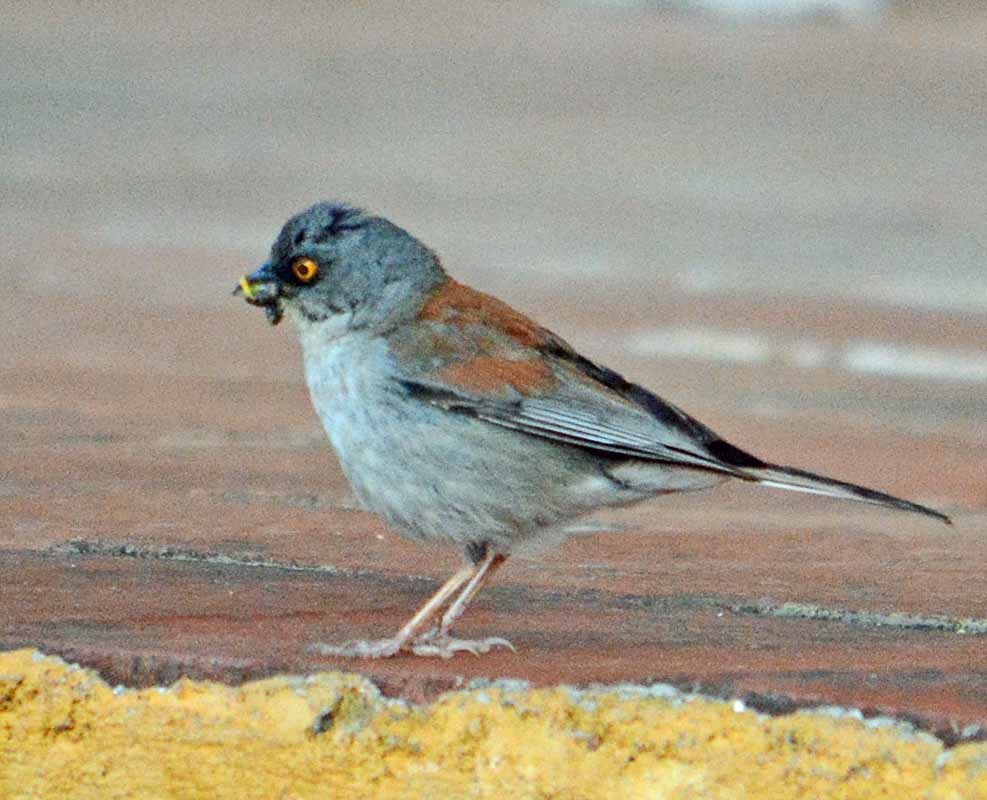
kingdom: Animalia
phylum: Chordata
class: Aves
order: Passeriformes
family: Passerellidae
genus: Junco
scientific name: Junco phaeonotus
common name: Yellow-eyed junco
